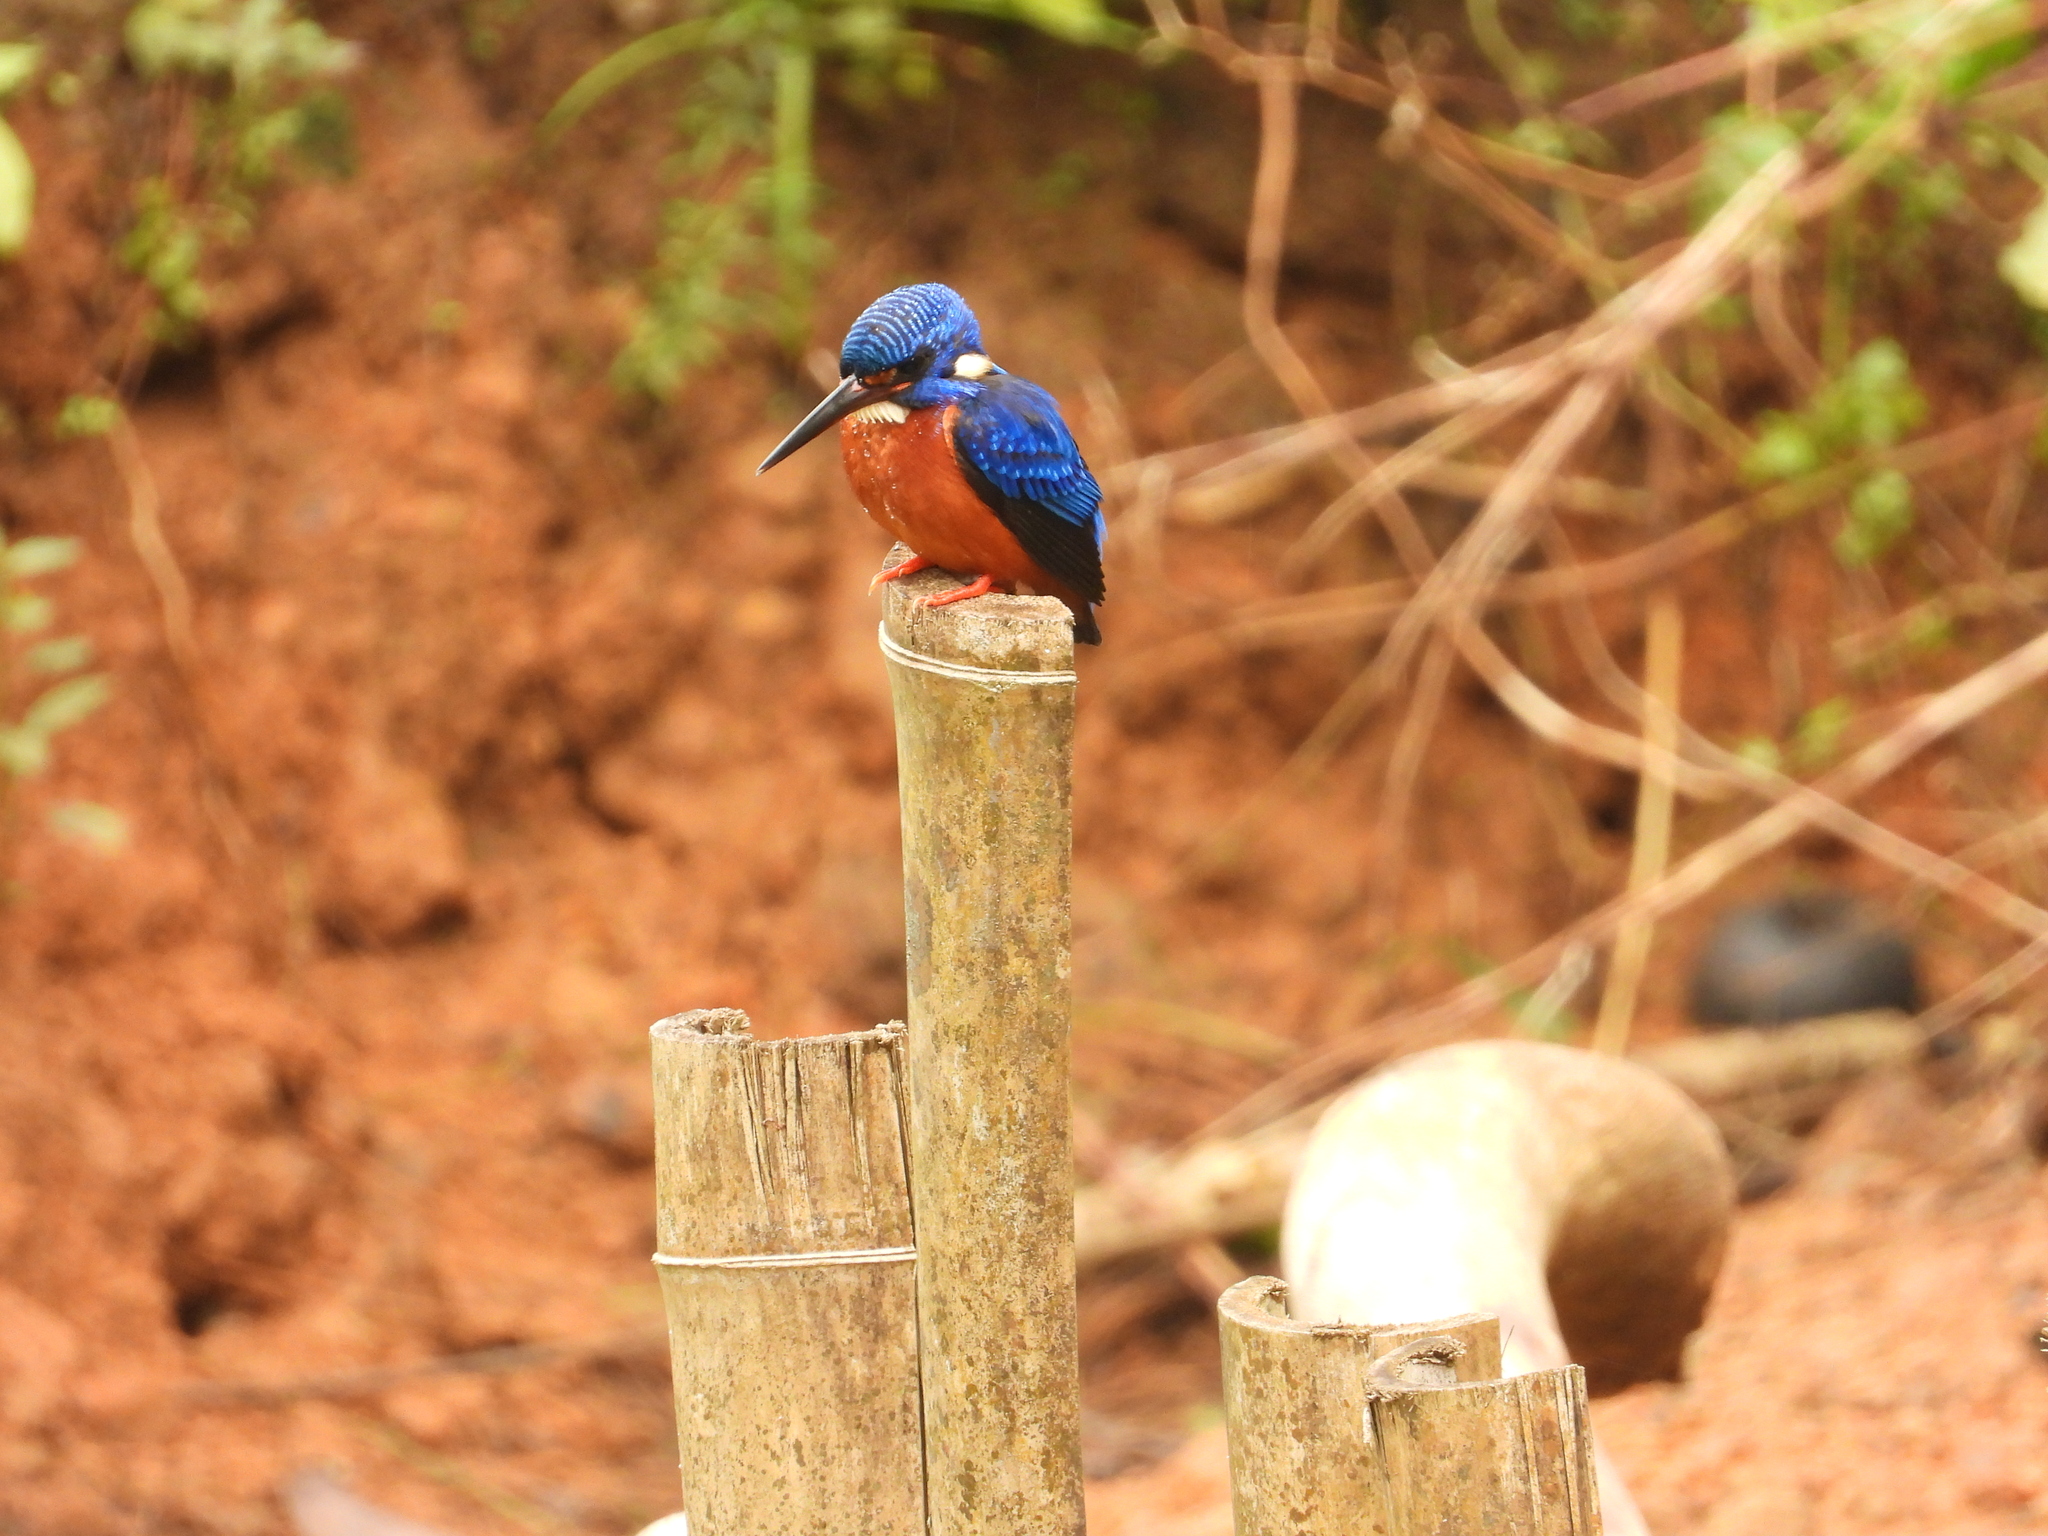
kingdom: Animalia
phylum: Chordata
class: Aves
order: Coraciiformes
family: Alcedinidae
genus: Alcedo
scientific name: Alcedo meninting
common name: Blue-eared kingfisher
